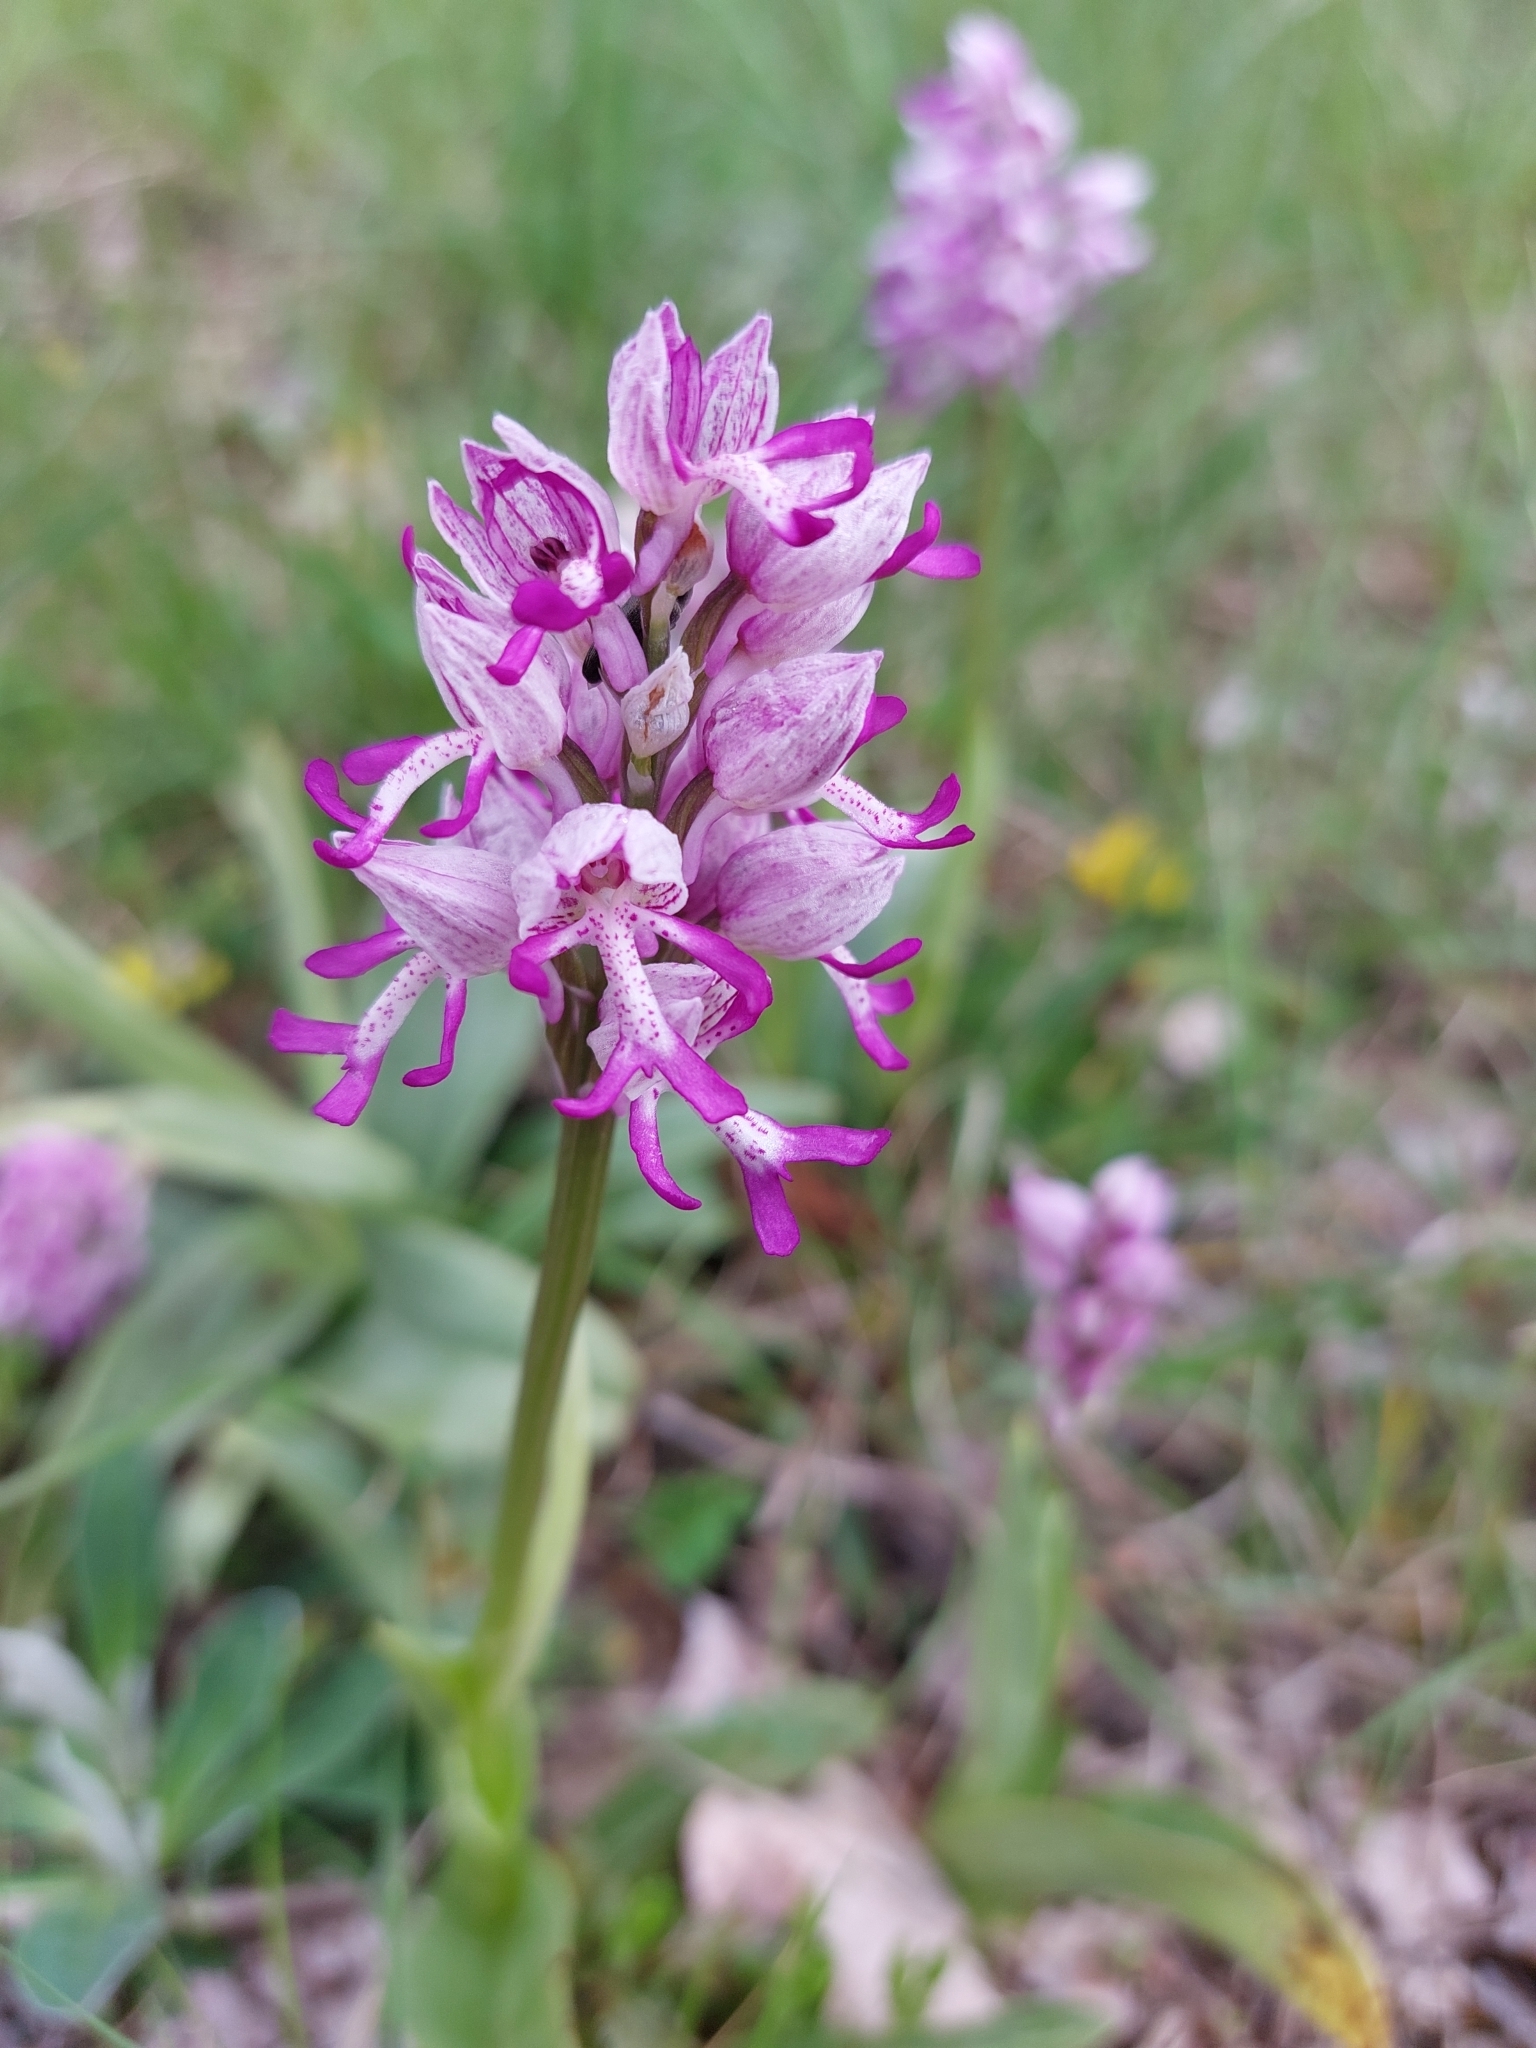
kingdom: Plantae
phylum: Tracheophyta
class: Liliopsida
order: Asparagales
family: Orchidaceae
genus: Orchis
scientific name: Orchis simia
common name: Monkey orchid
